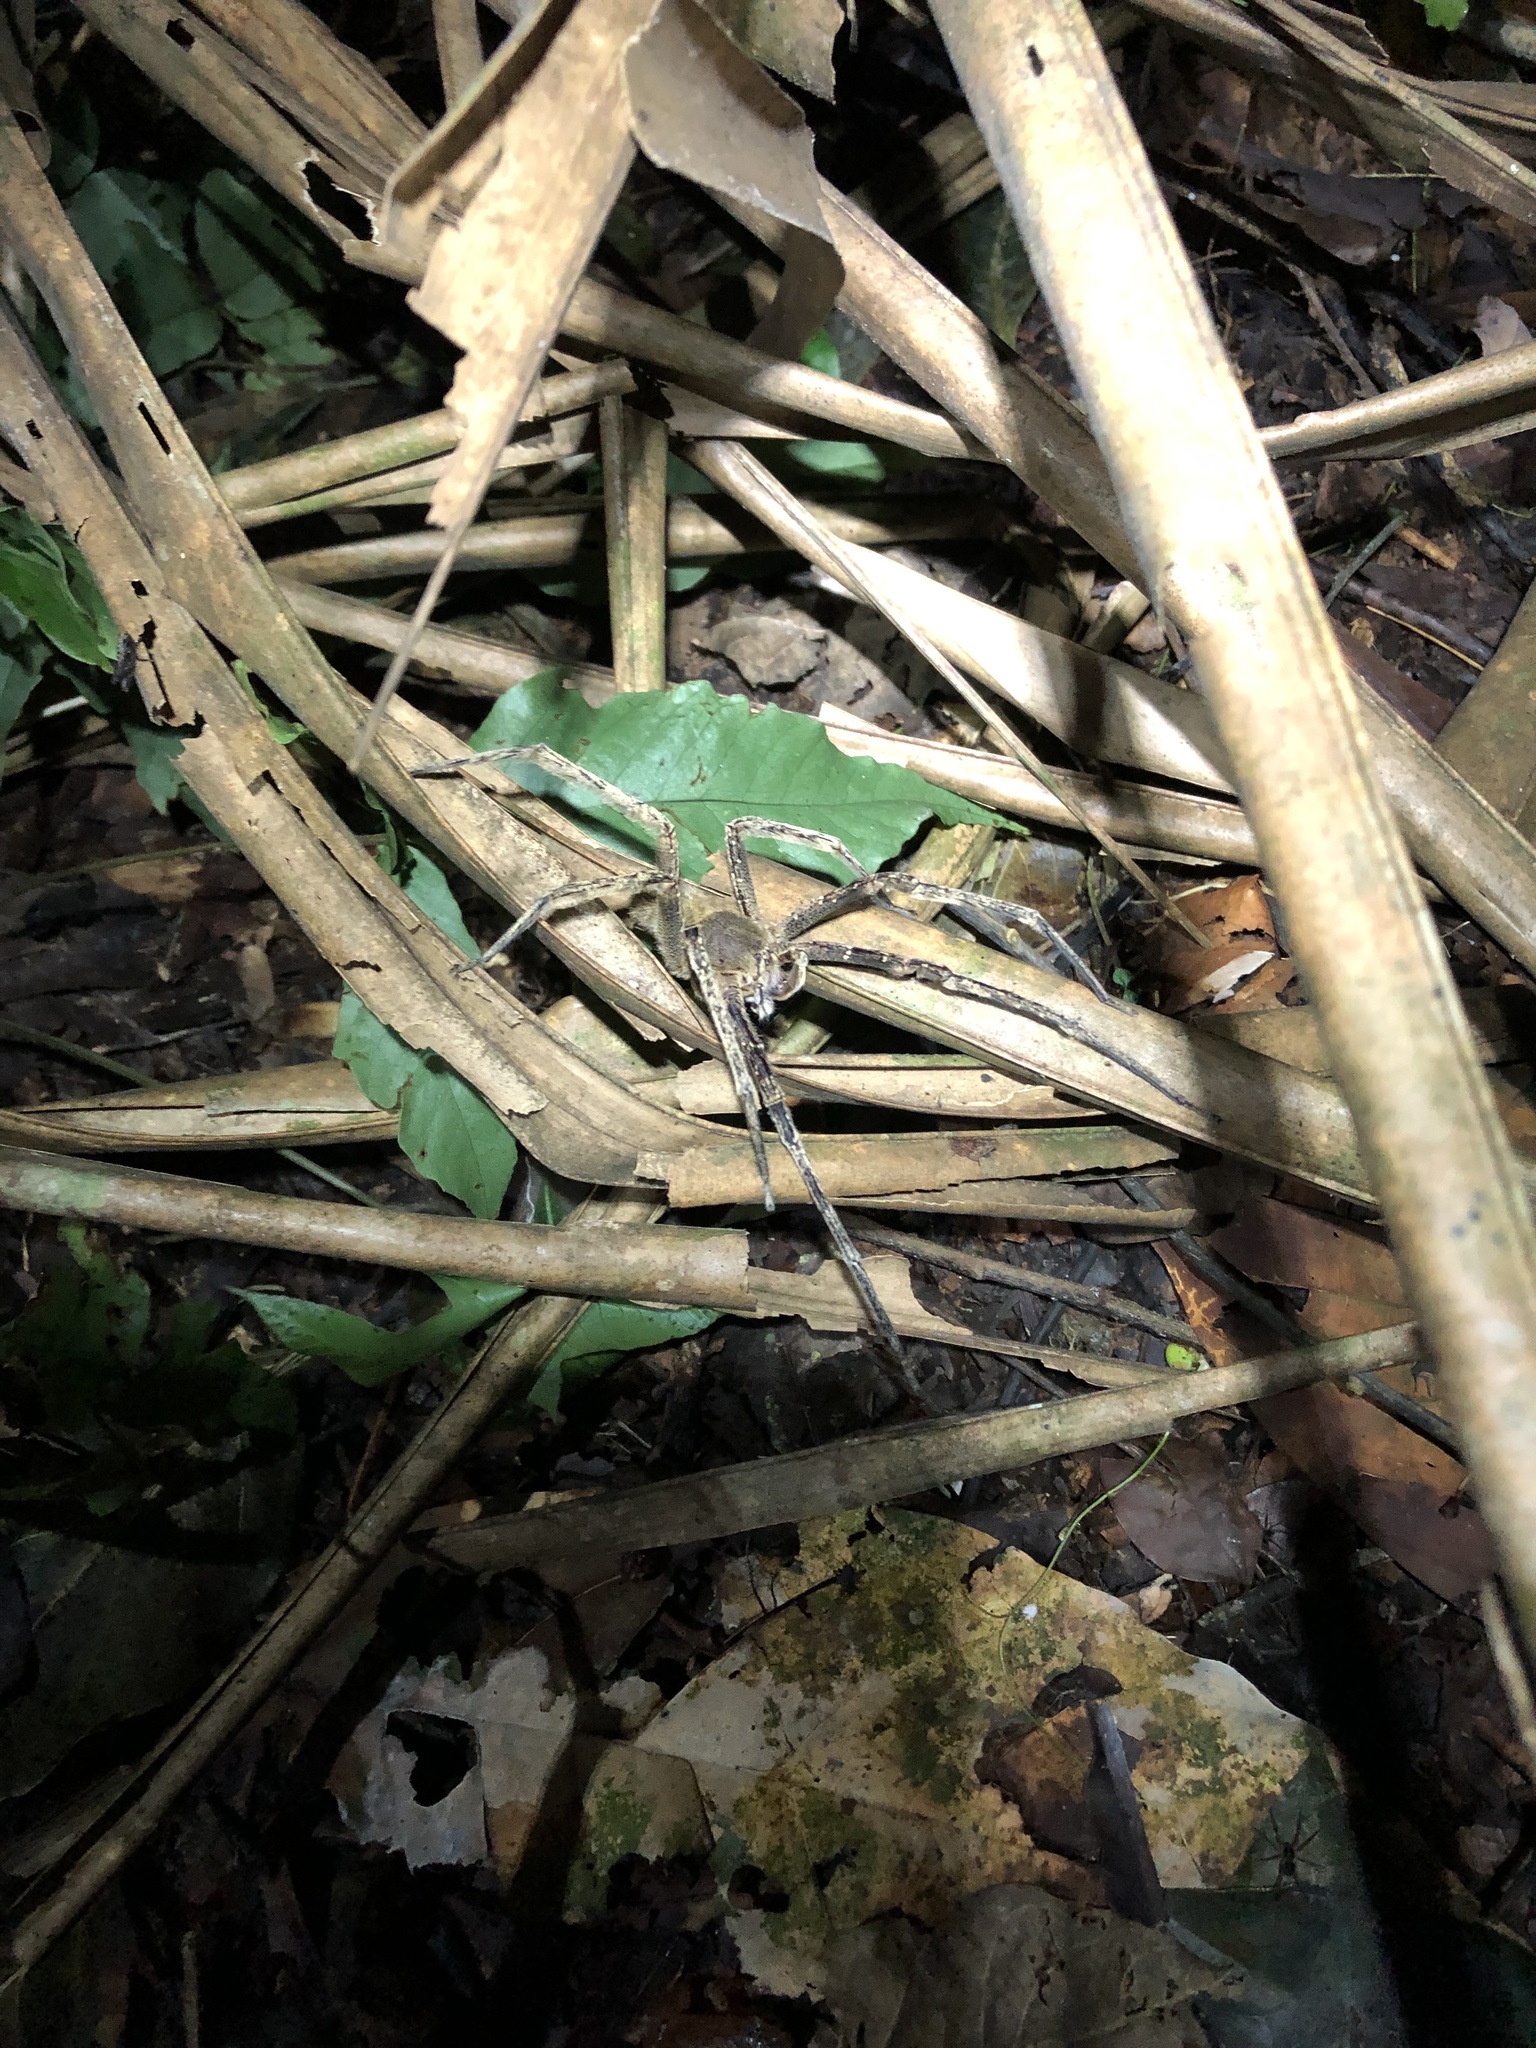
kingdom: Animalia
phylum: Arthropoda
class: Arachnida
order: Araneae
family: Ctenidae
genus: Phoneutria
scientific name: Phoneutria fera
